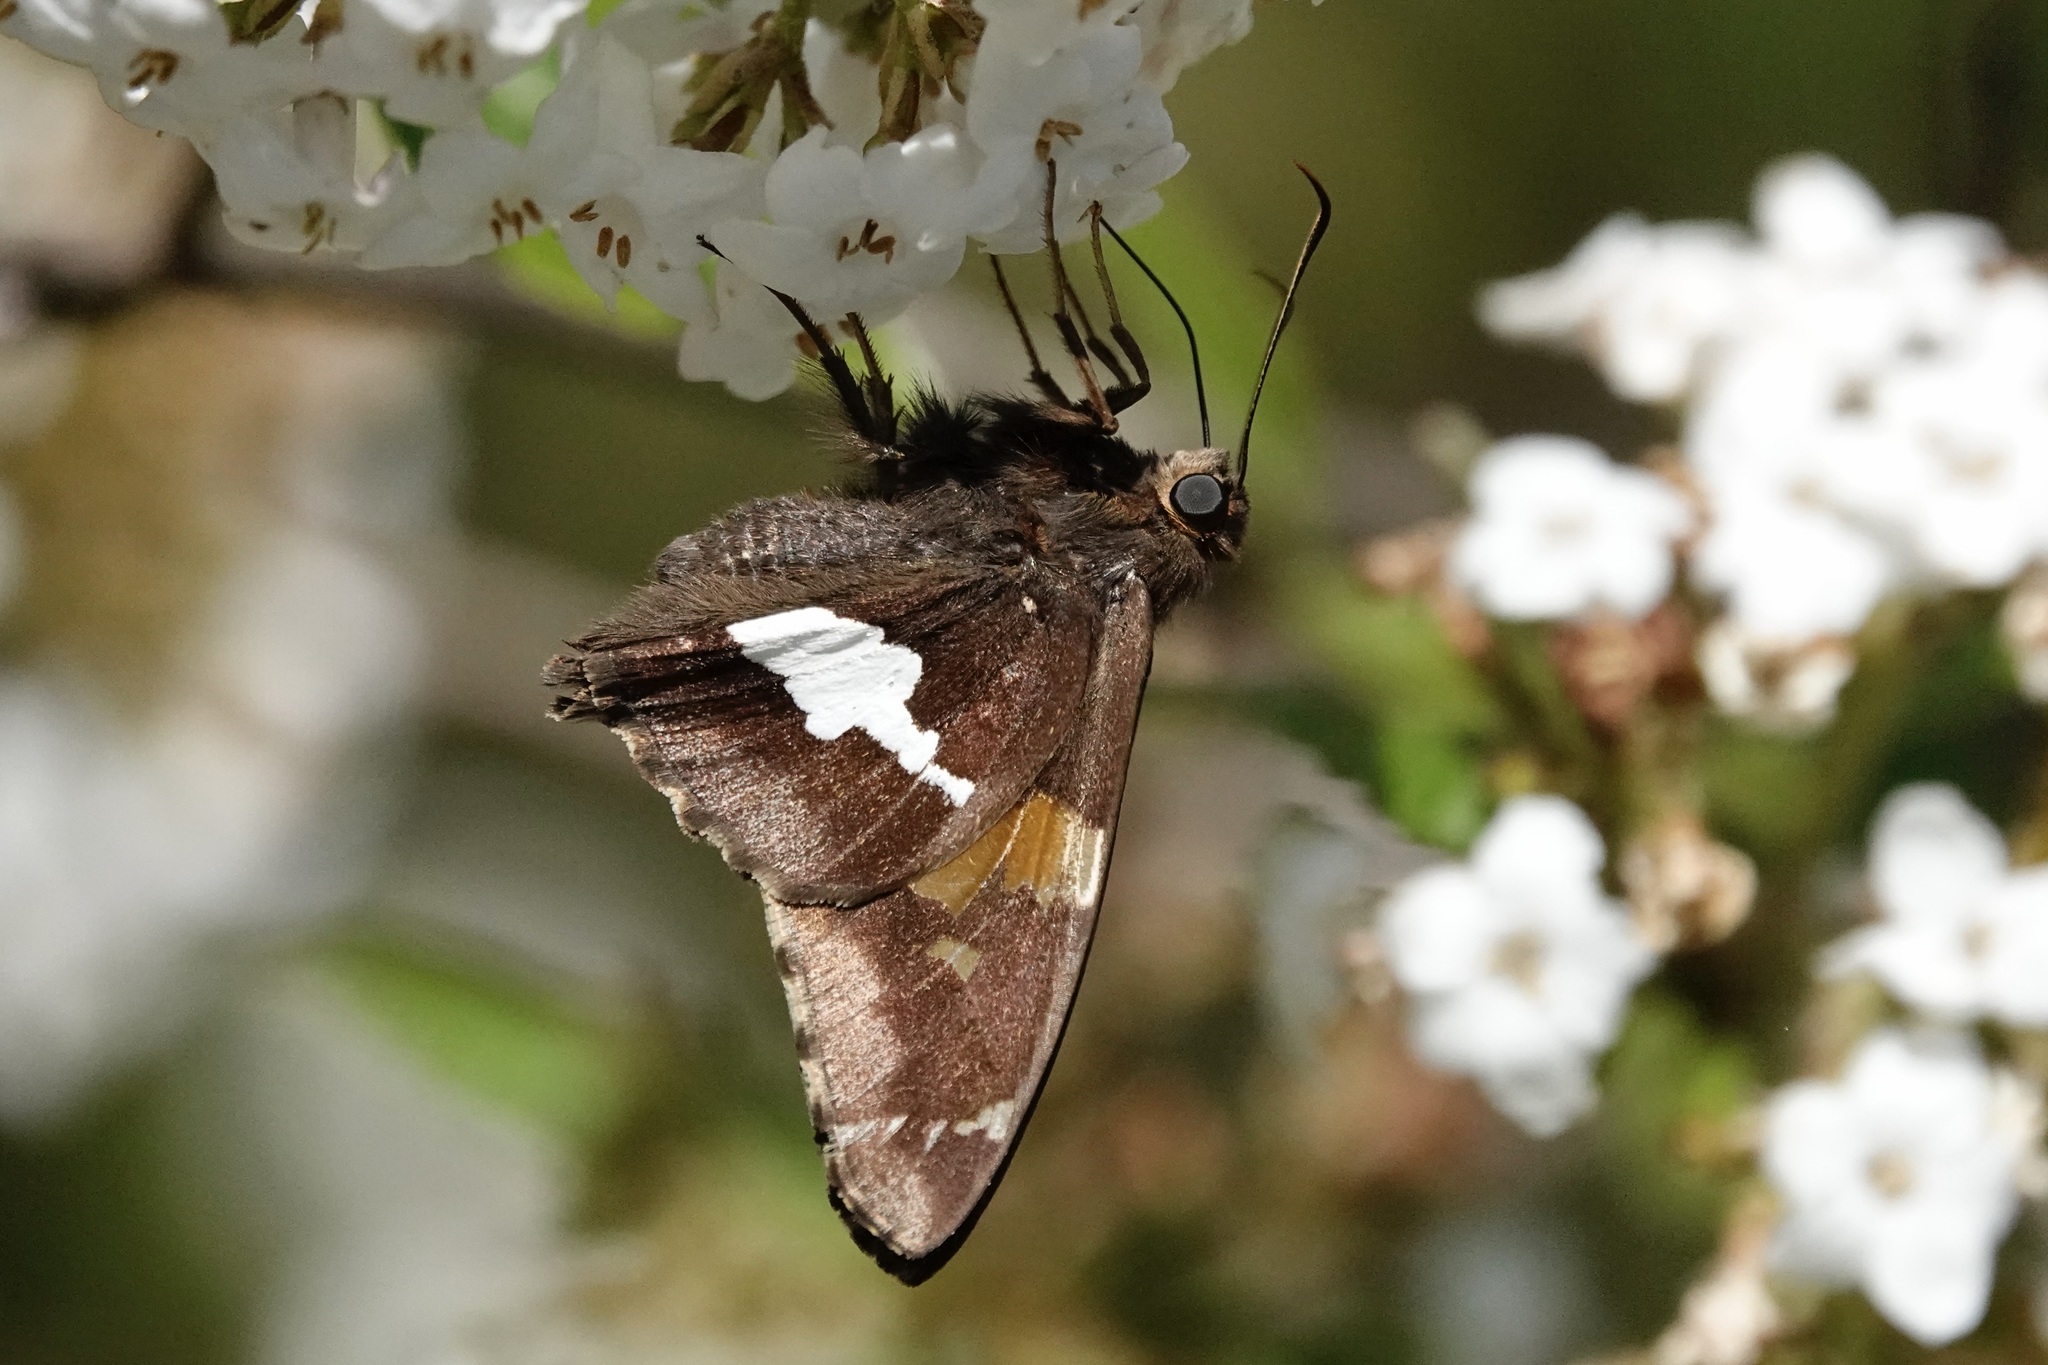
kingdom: Animalia
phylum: Arthropoda
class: Insecta
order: Lepidoptera
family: Hesperiidae
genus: Epargyreus
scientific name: Epargyreus clarus
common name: Silver-spotted skipper
